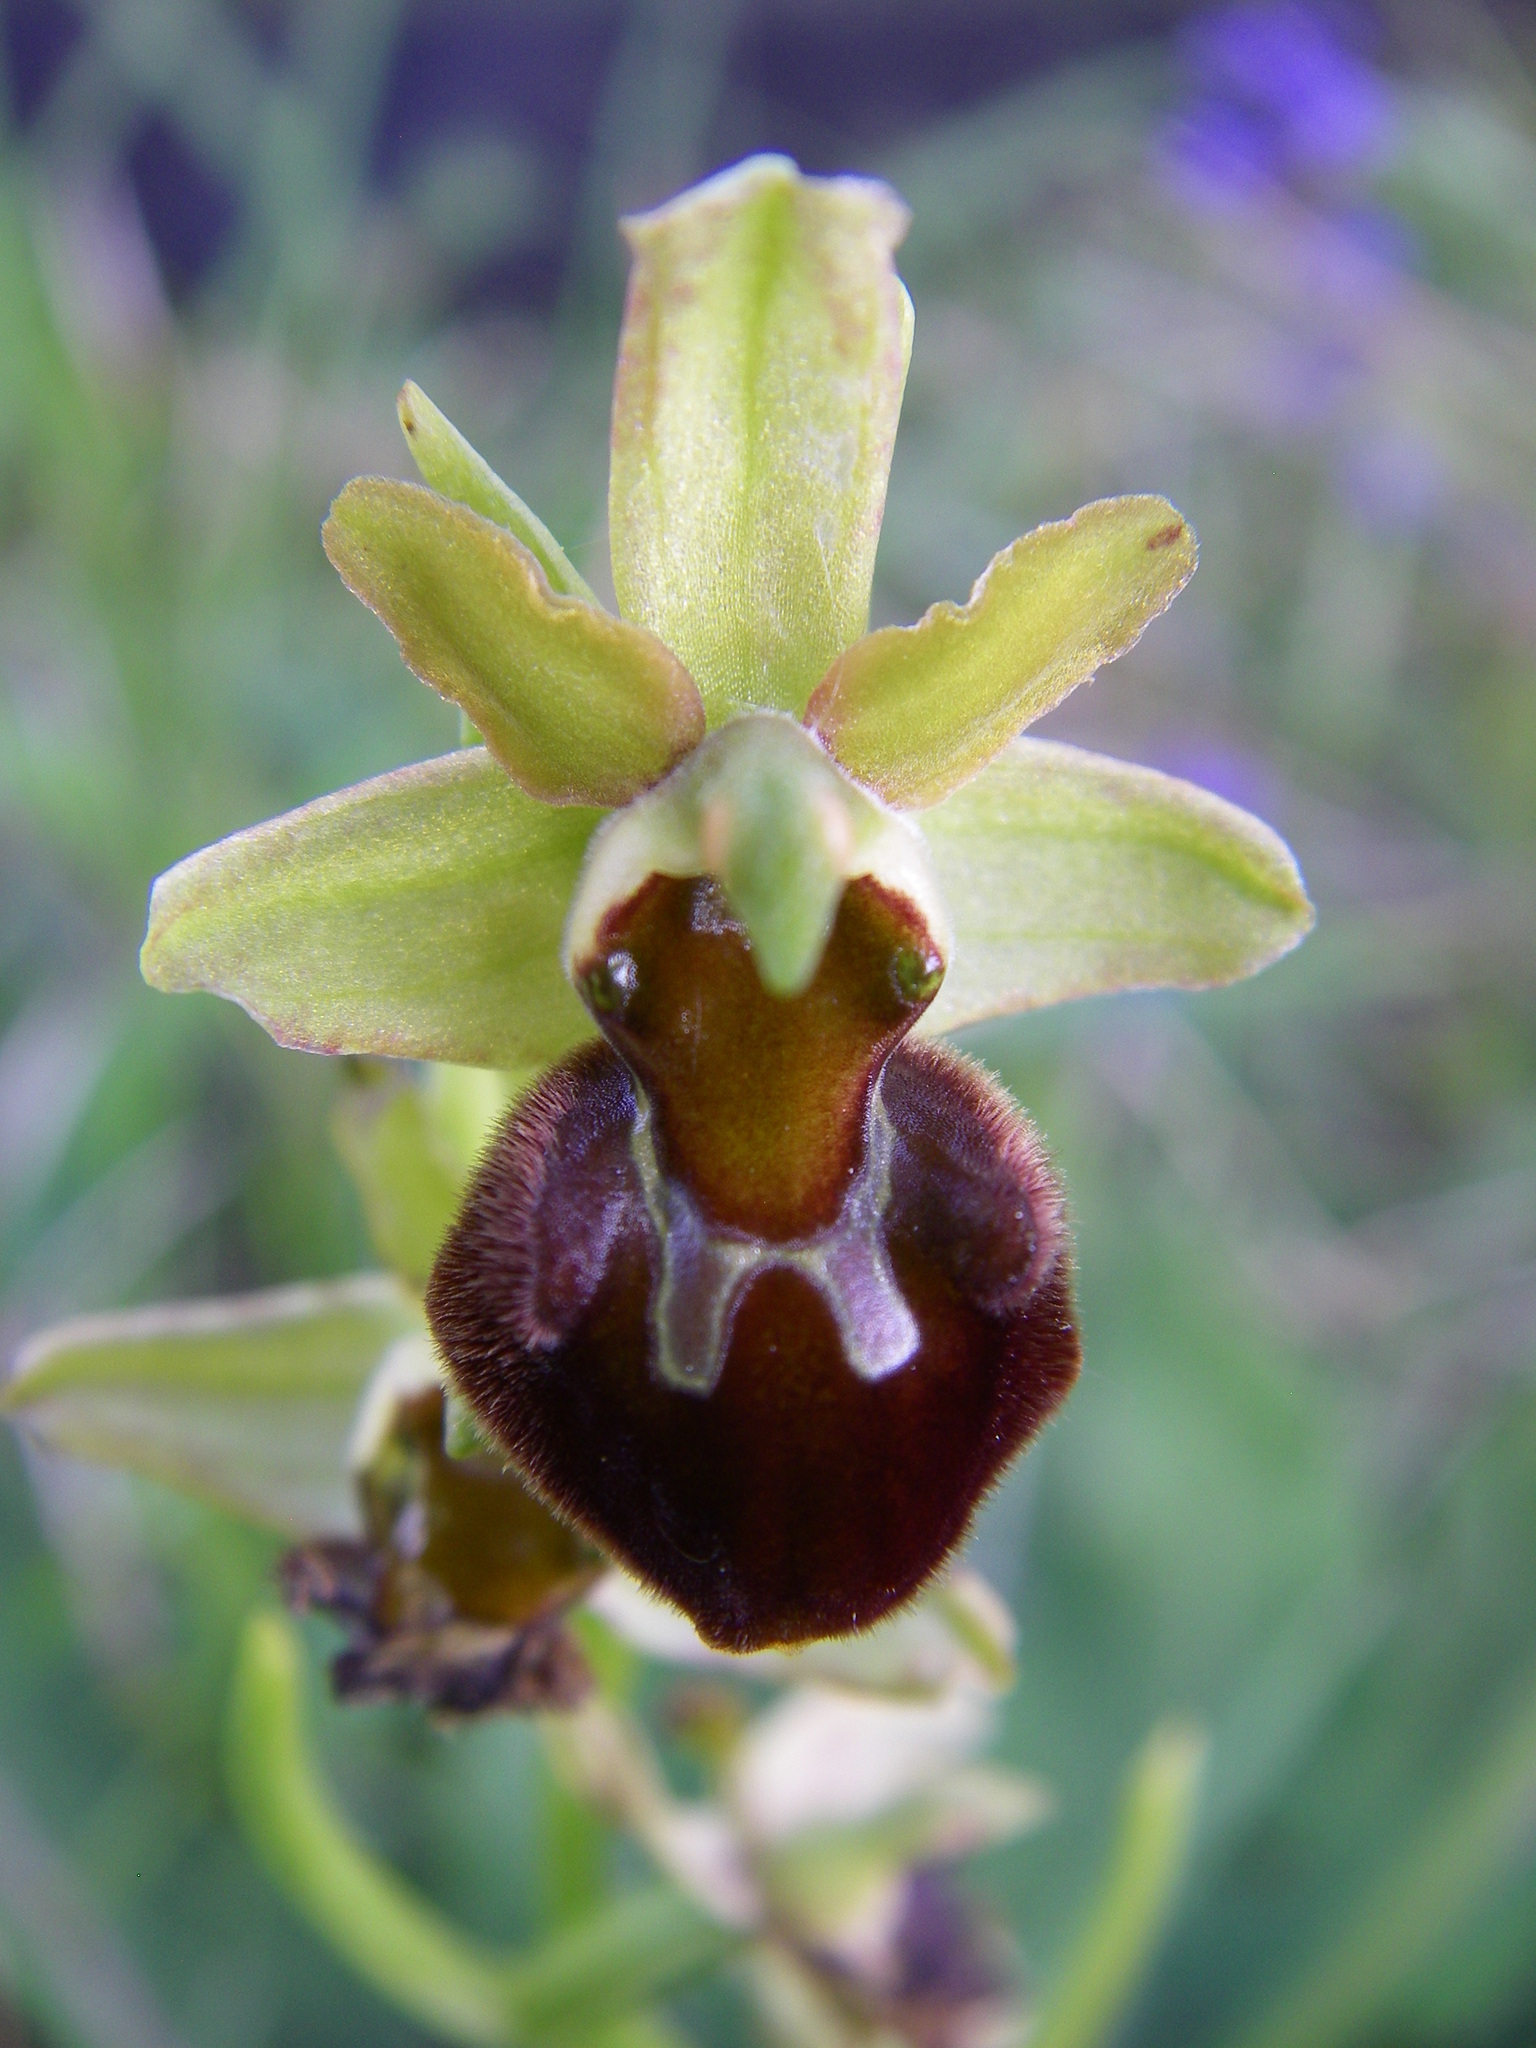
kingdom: Plantae
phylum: Tracheophyta
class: Liliopsida
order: Asparagales
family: Orchidaceae
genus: Ophrys
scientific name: Ophrys sphegodes
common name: Early spider-orchid
